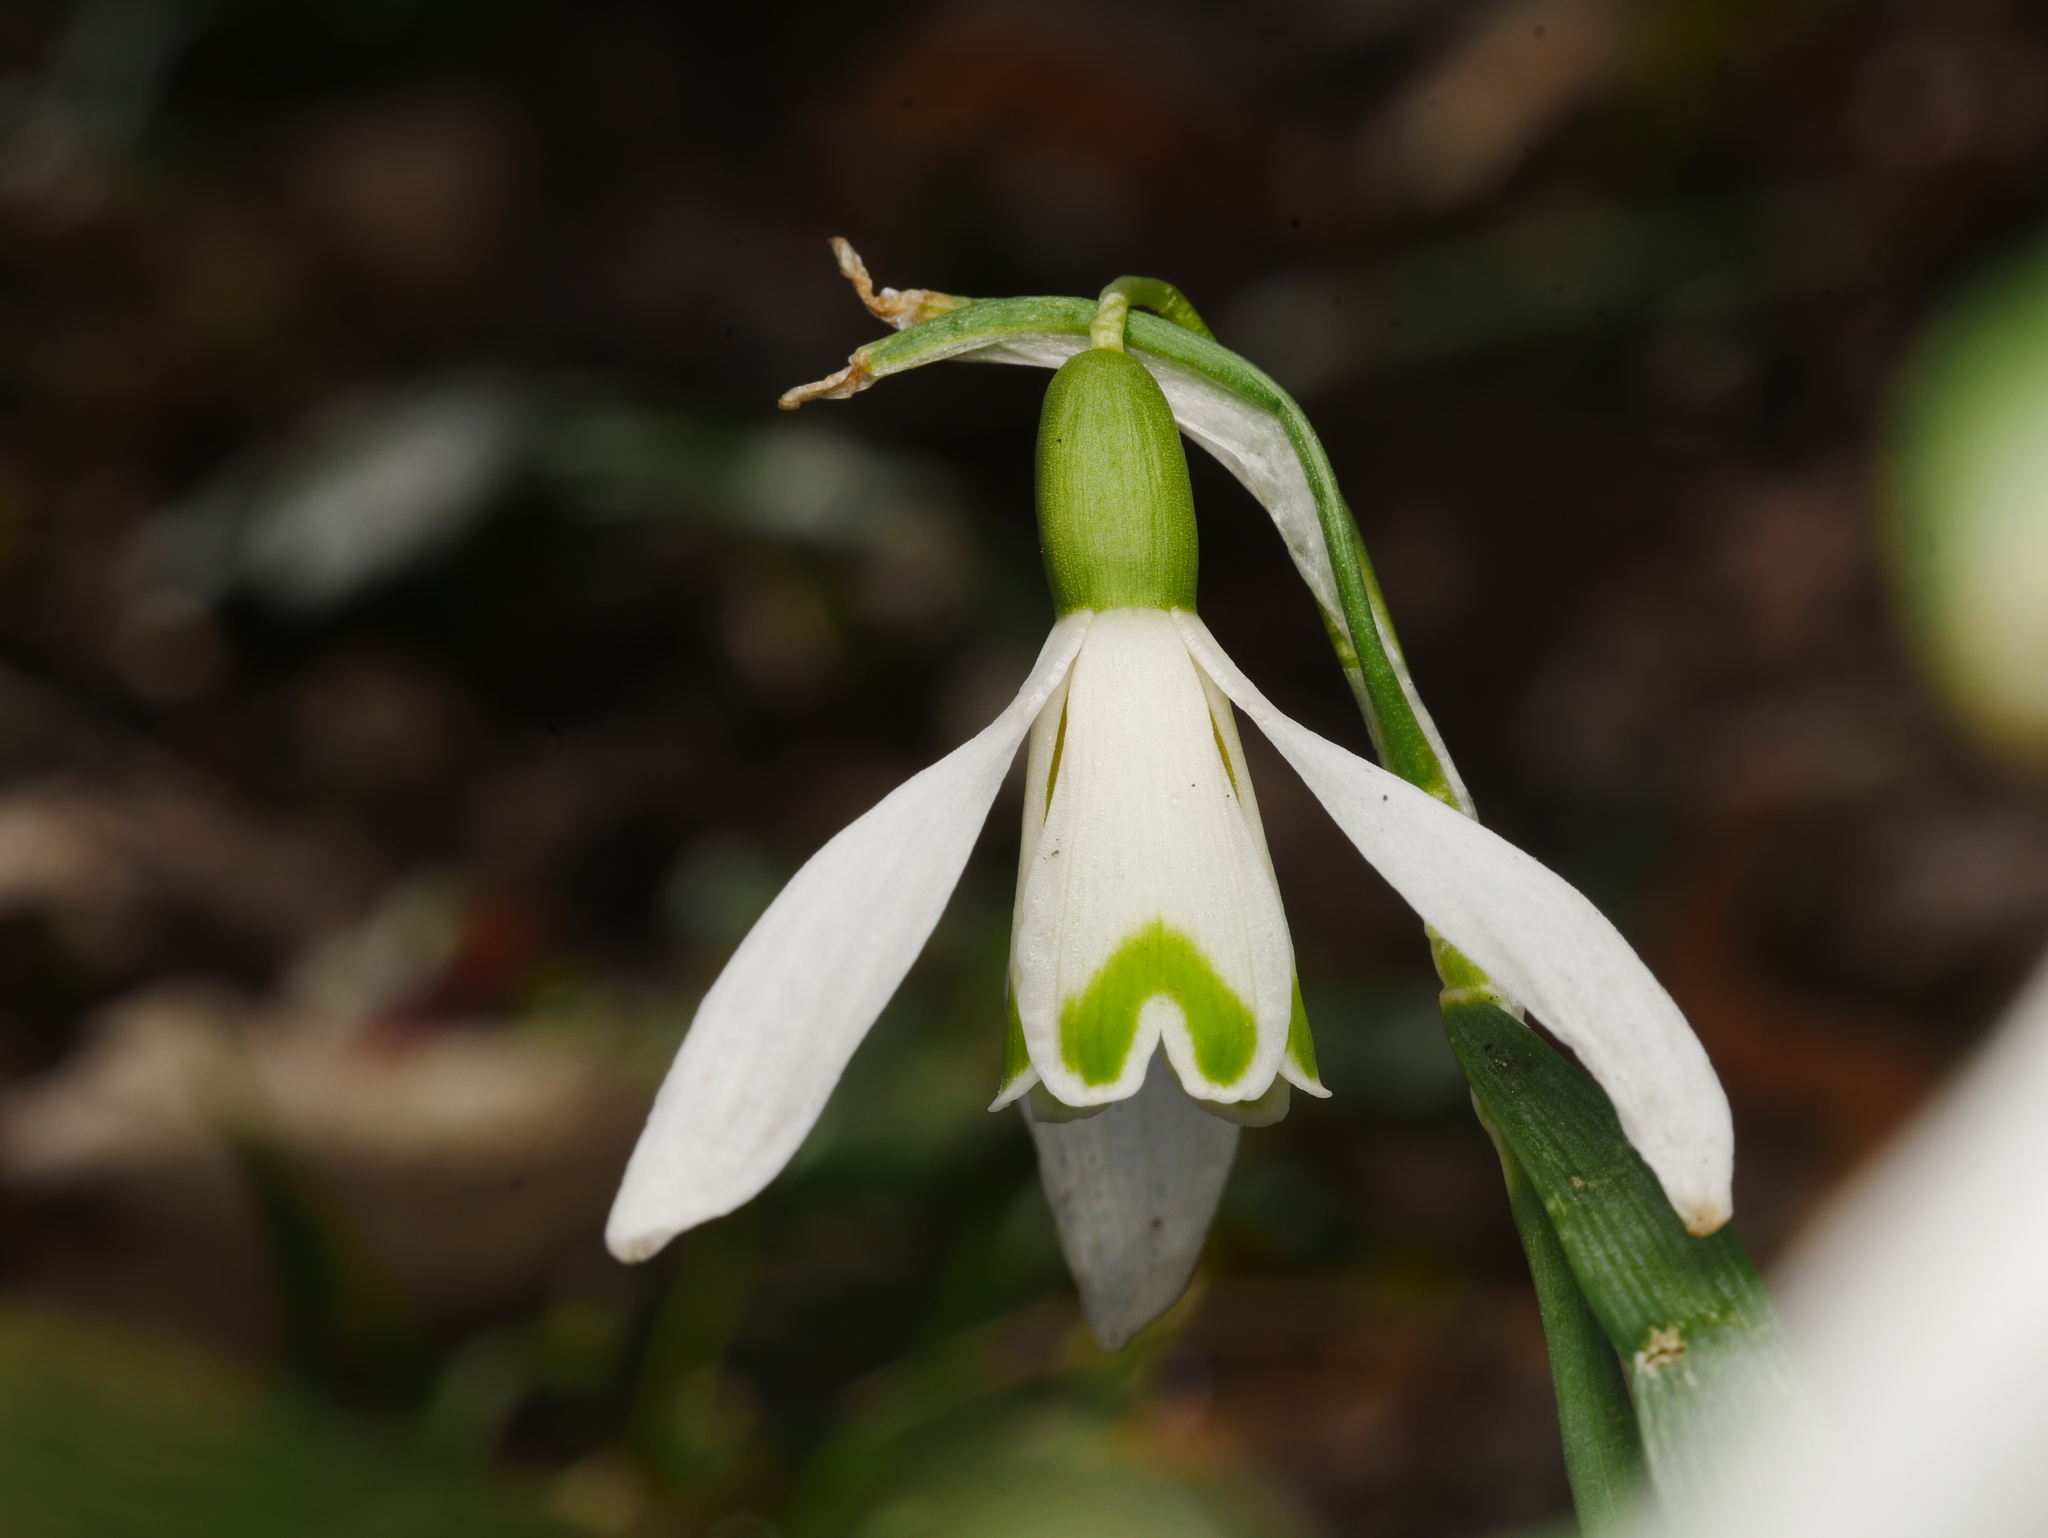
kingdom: Plantae
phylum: Tracheophyta
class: Liliopsida
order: Asparagales
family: Amaryllidaceae
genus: Galanthus
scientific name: Galanthus nivalis
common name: Snowdrop
